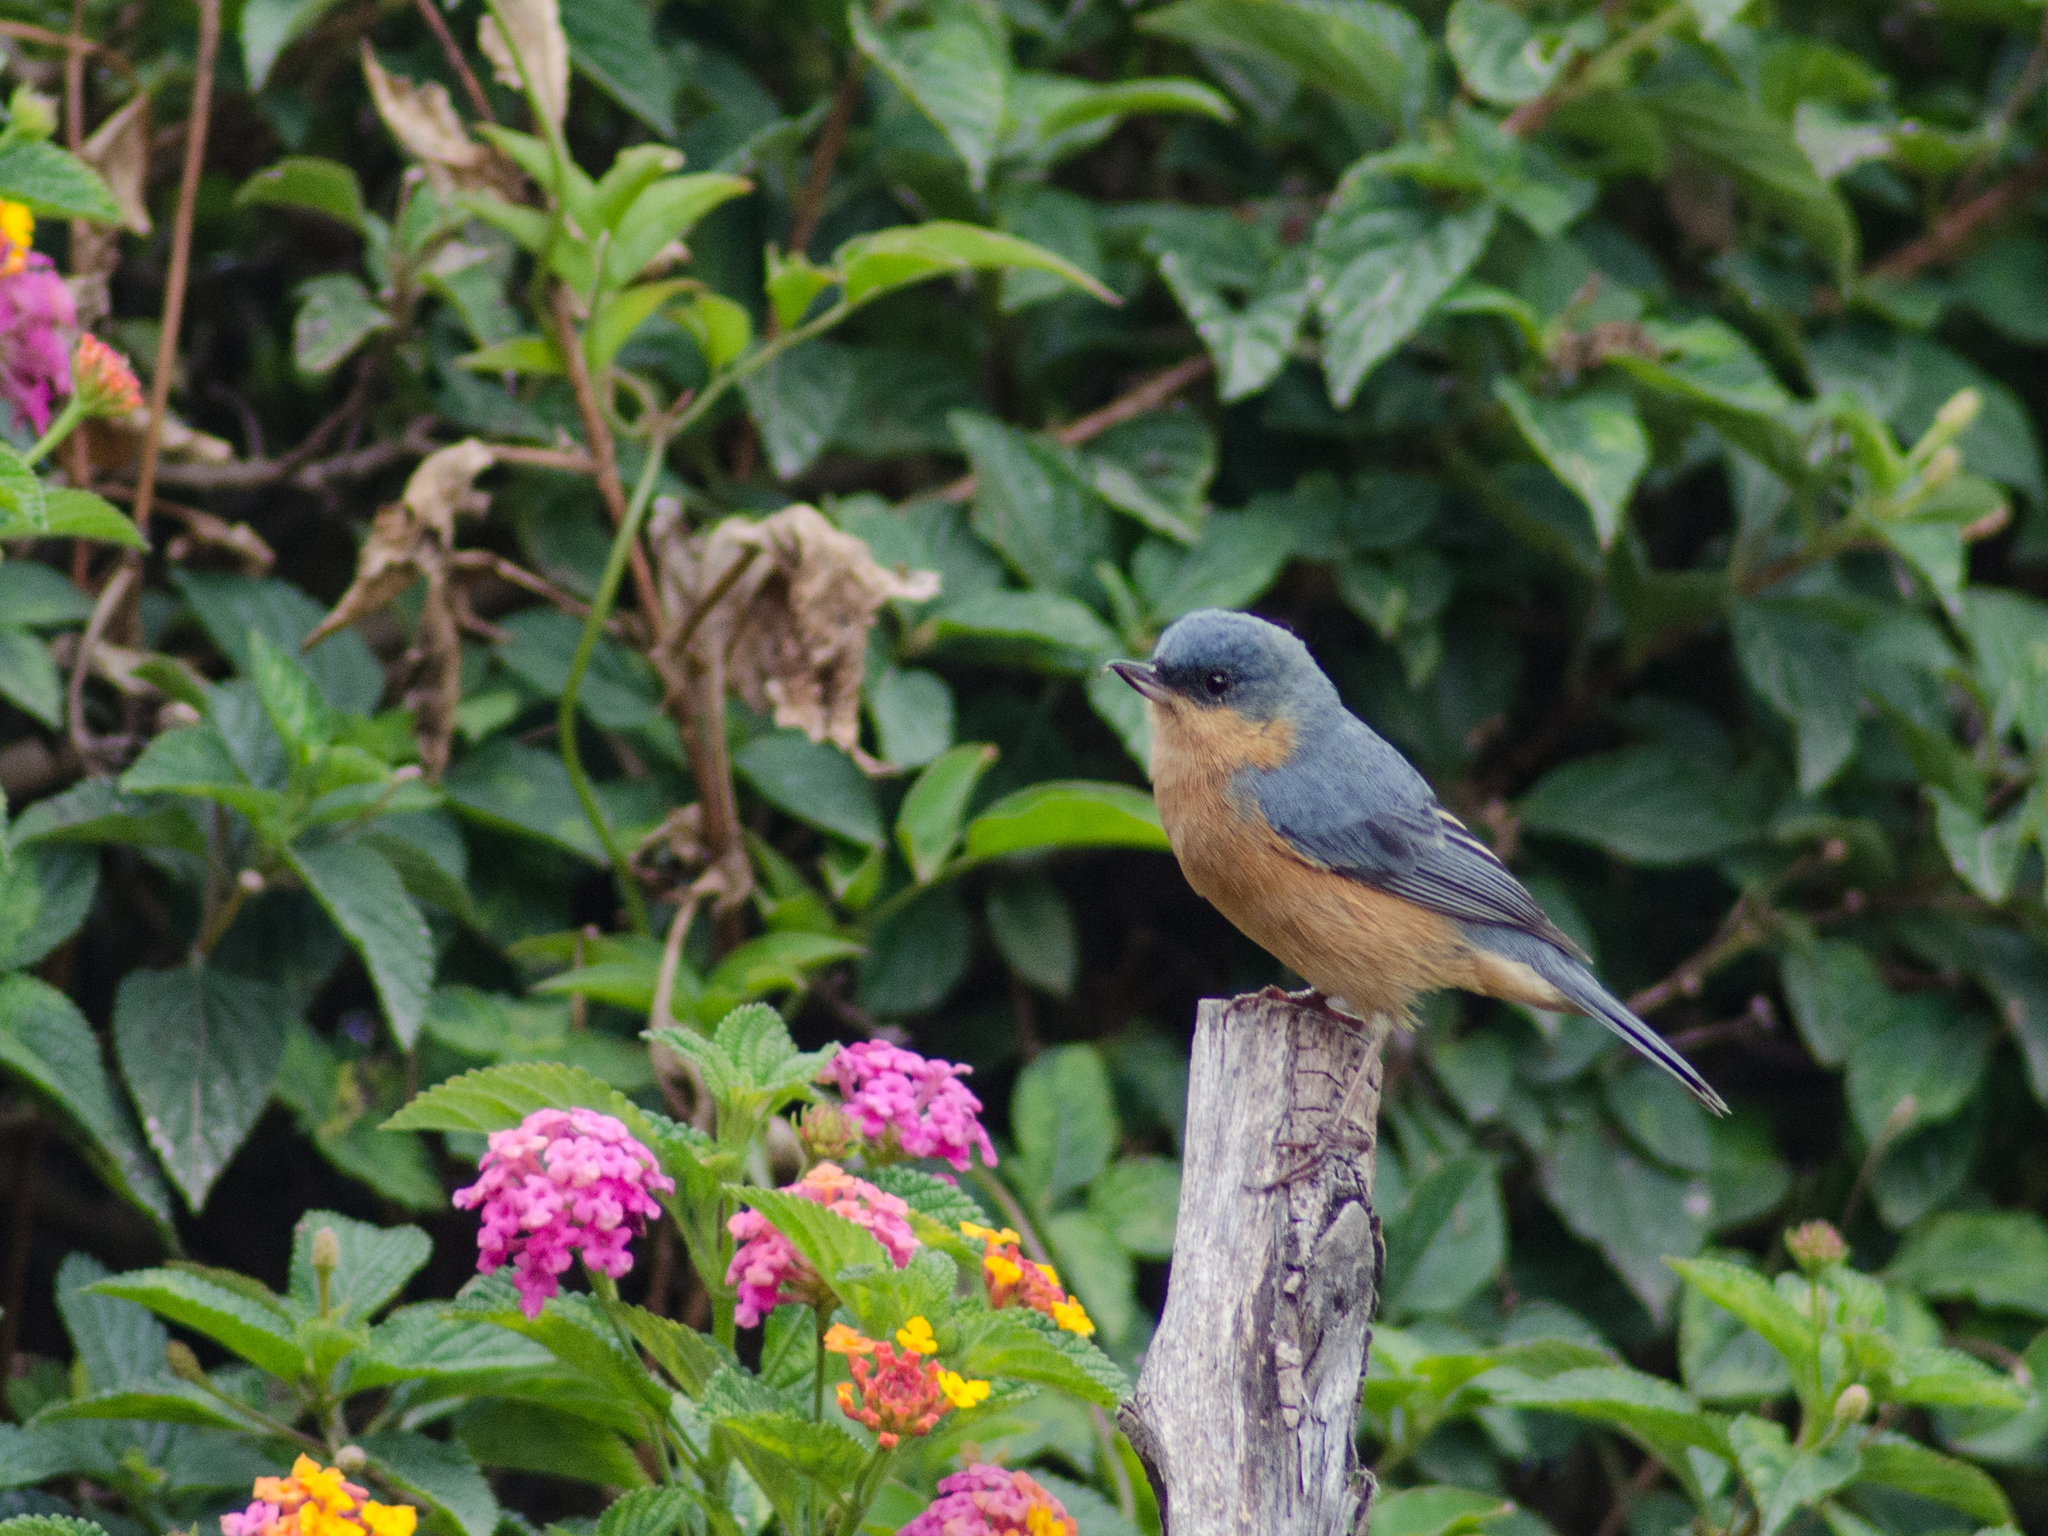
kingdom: Animalia
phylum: Chordata
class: Aves
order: Passeriformes
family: Thraupidae
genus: Diglossa
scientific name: Diglossa sittoides
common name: Rusty flowerpiercer
